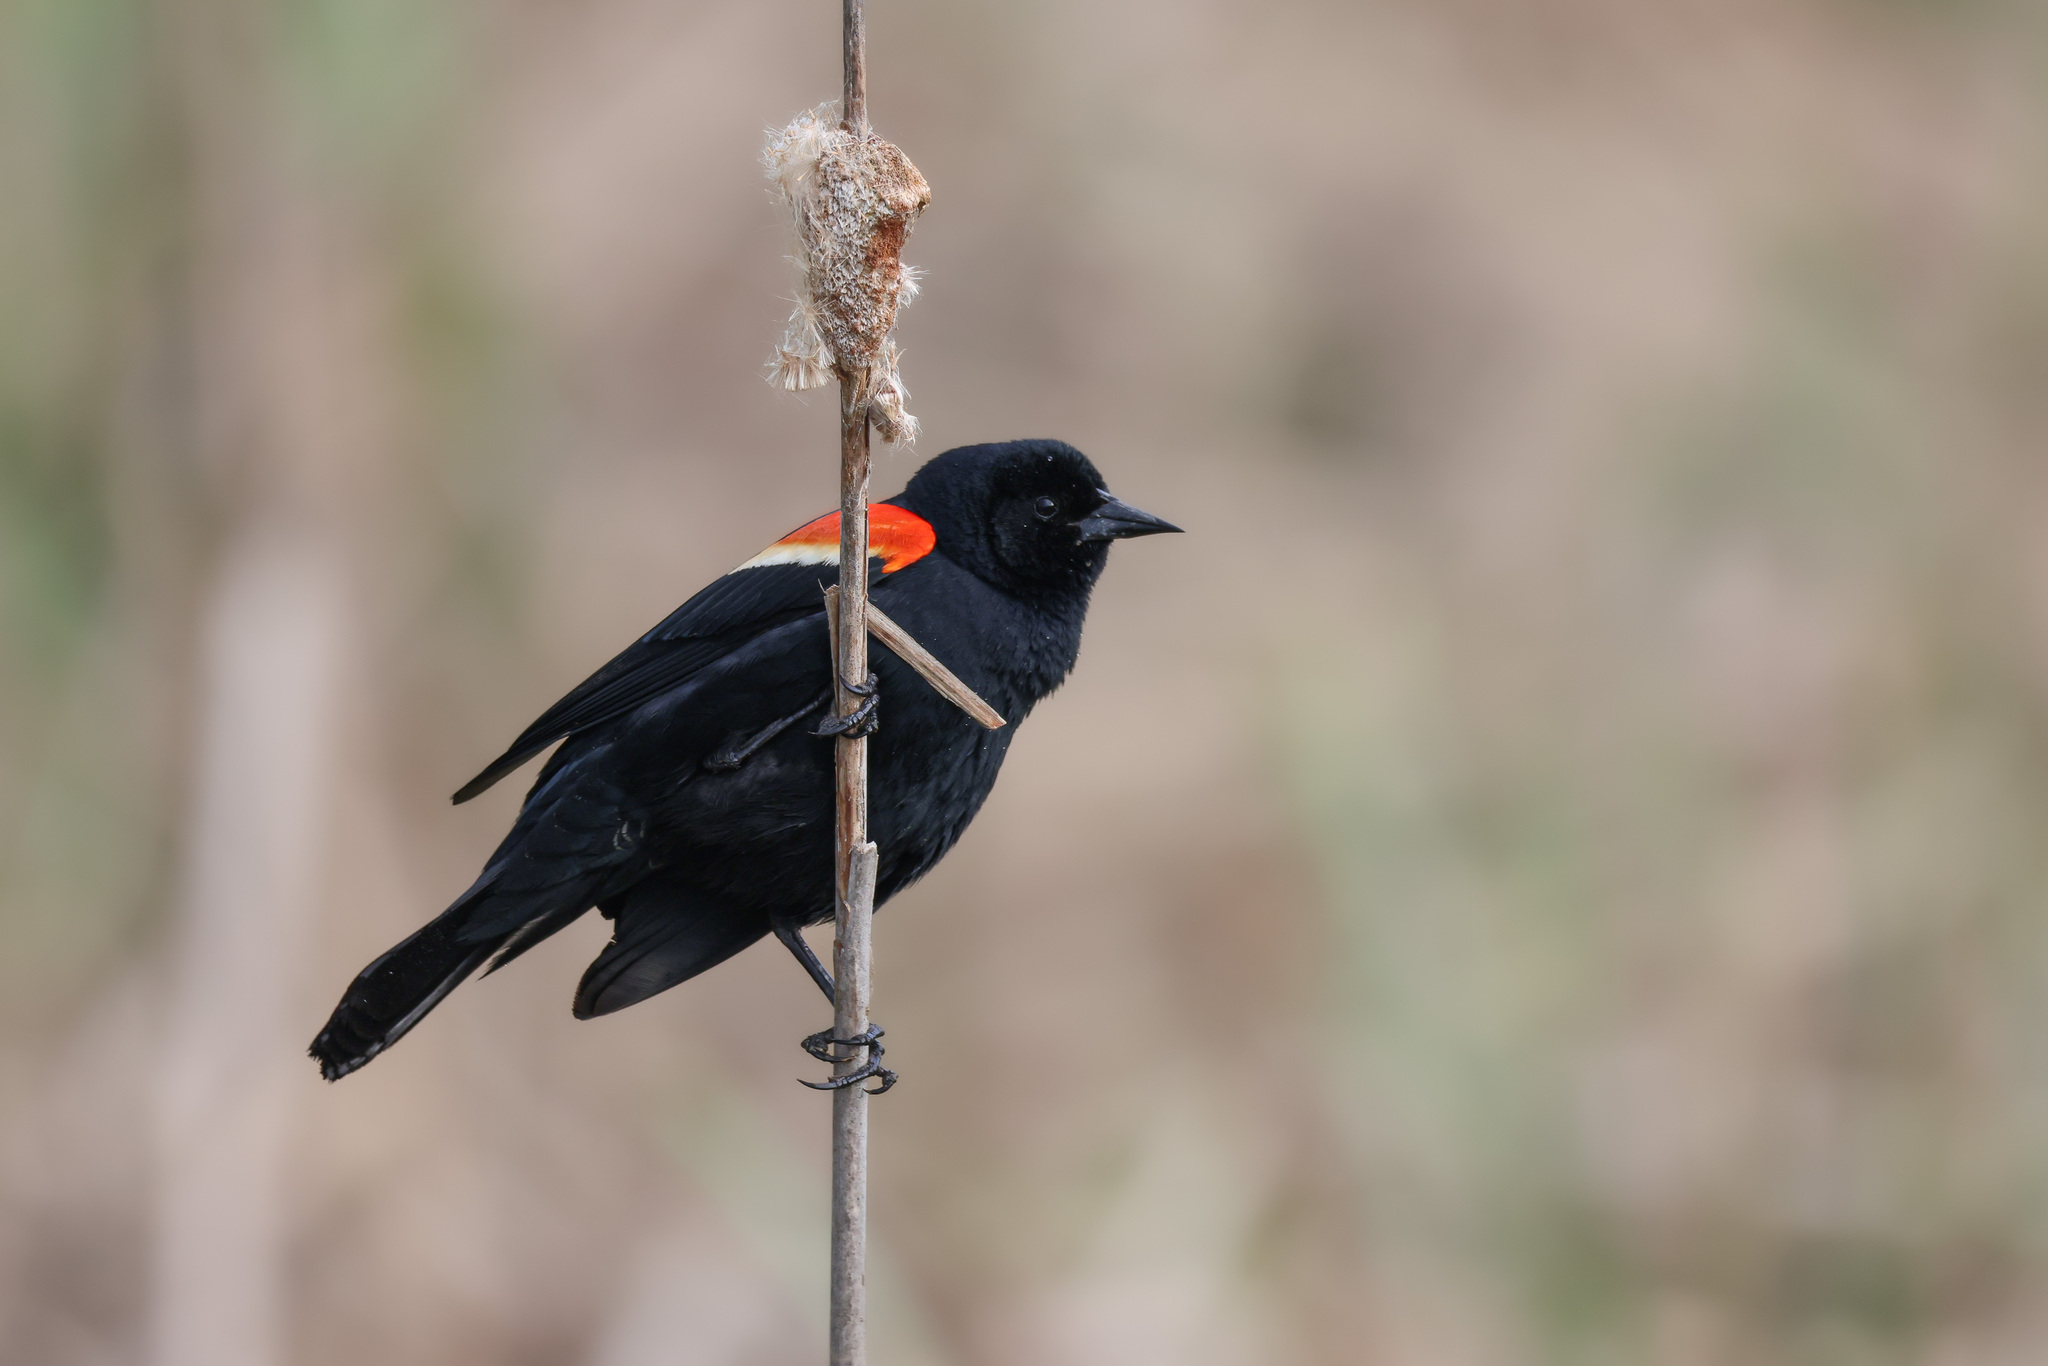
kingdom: Animalia
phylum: Chordata
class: Aves
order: Passeriformes
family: Icteridae
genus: Agelaius
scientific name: Agelaius phoeniceus
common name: Red-winged blackbird
